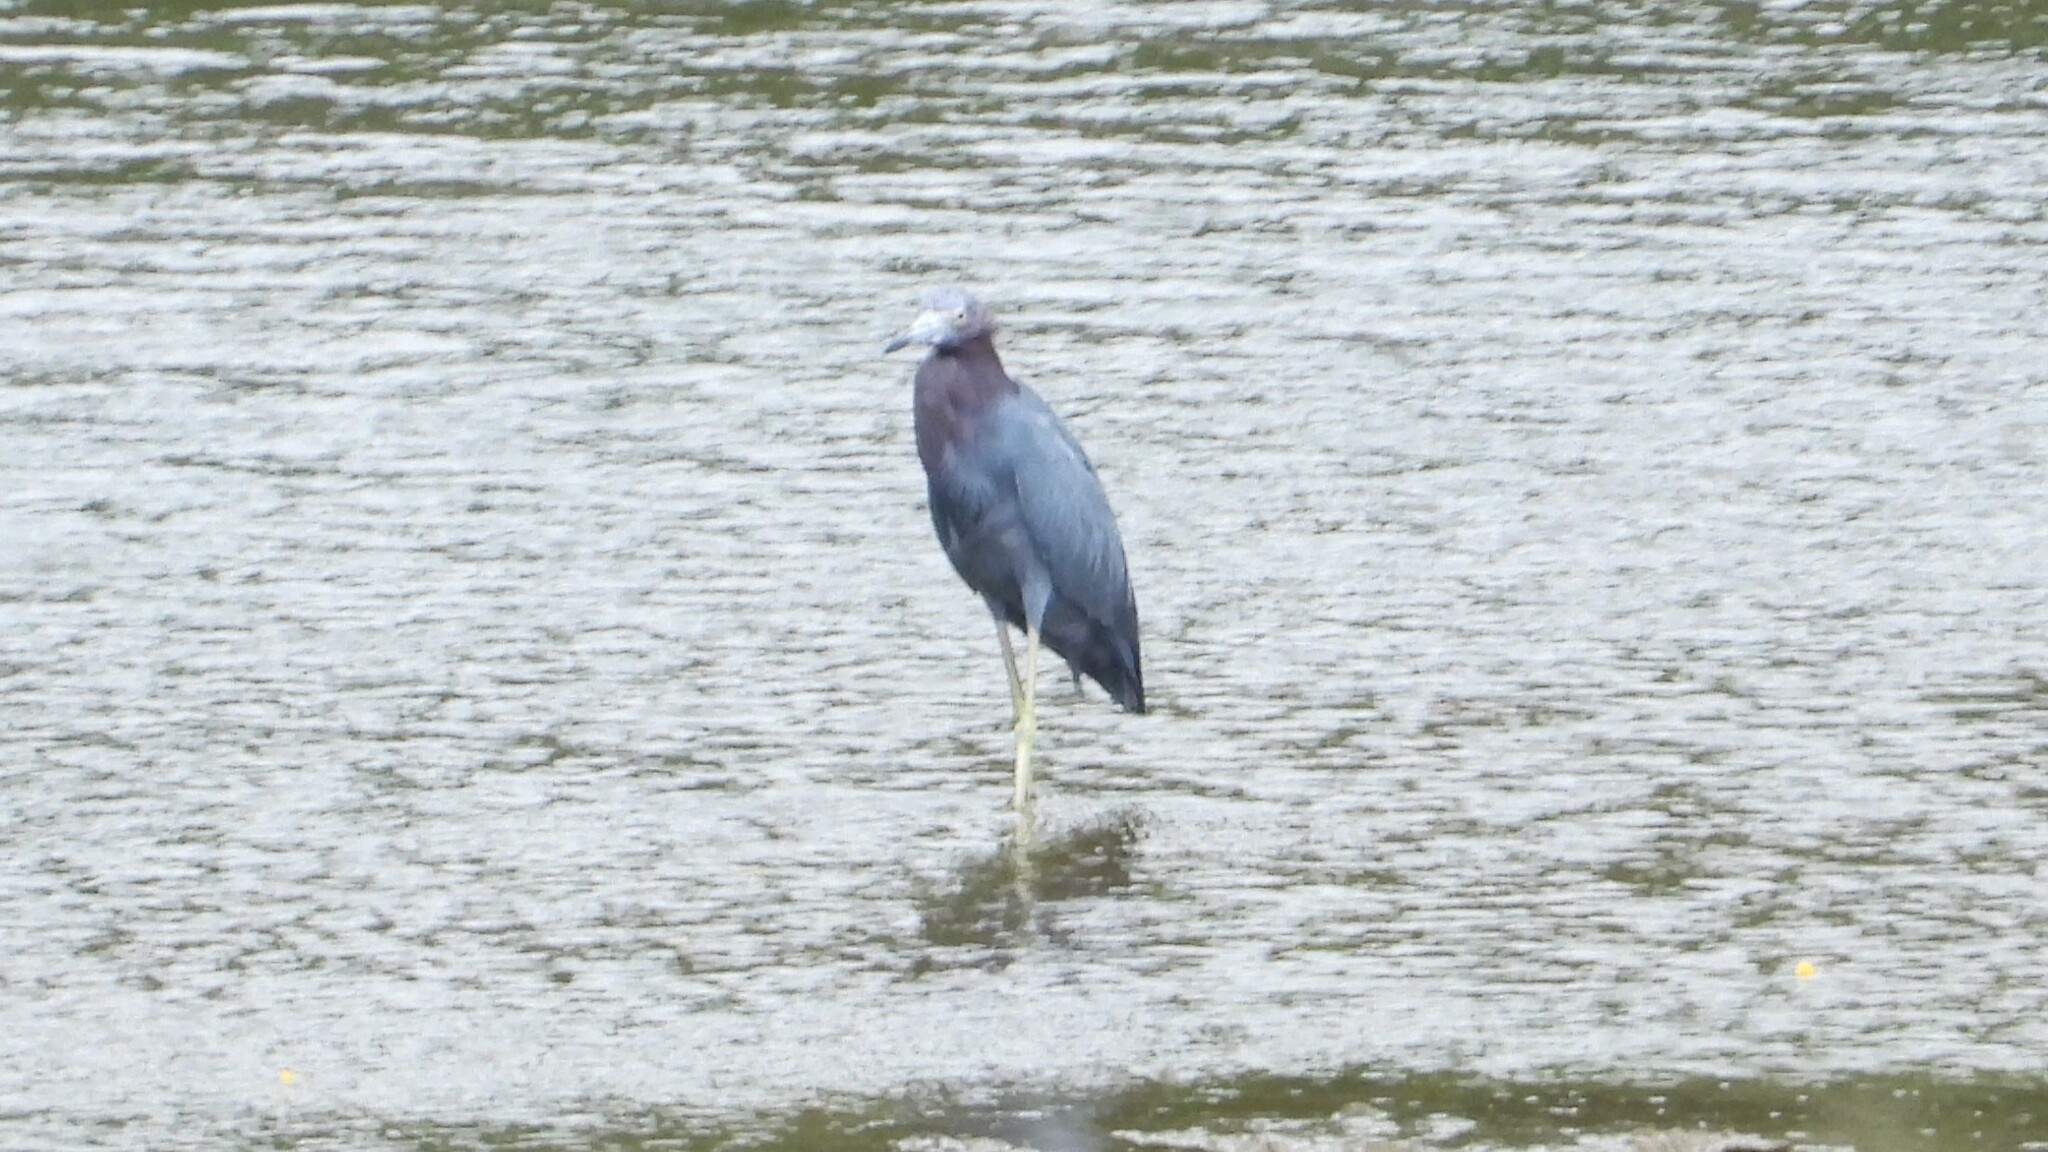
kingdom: Animalia
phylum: Chordata
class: Aves
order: Pelecaniformes
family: Ardeidae
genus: Egretta
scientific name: Egretta caerulea
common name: Little blue heron
